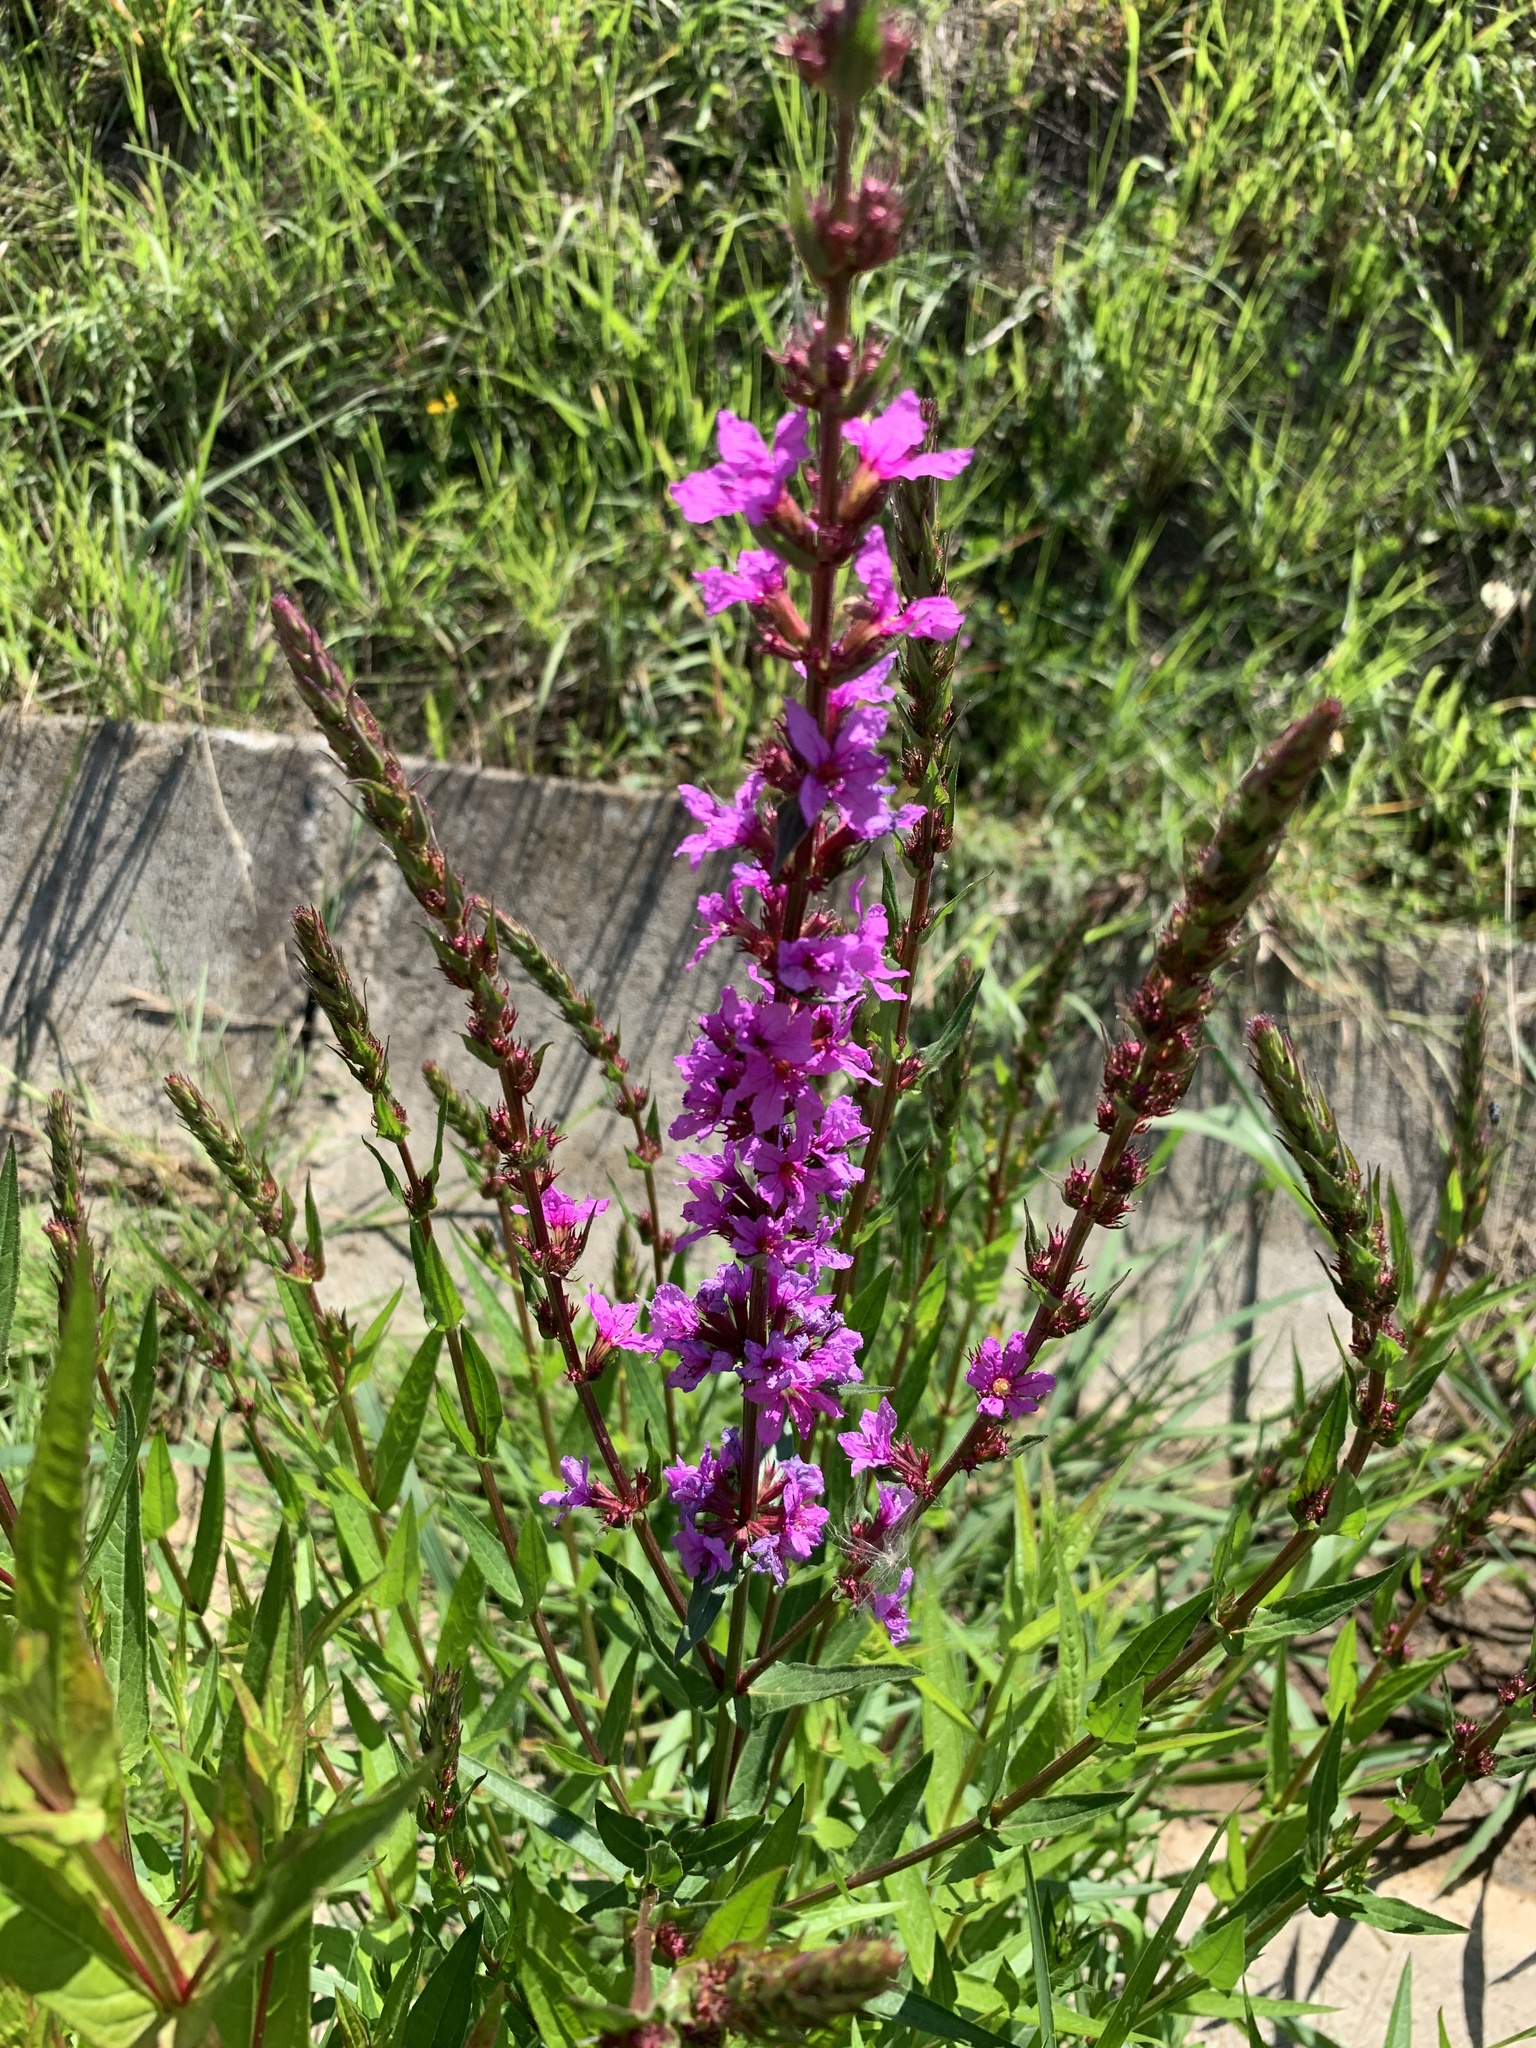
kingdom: Plantae
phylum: Tracheophyta
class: Magnoliopsida
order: Myrtales
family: Lythraceae
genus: Lythrum
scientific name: Lythrum salicaria
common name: Purple loosestrife
